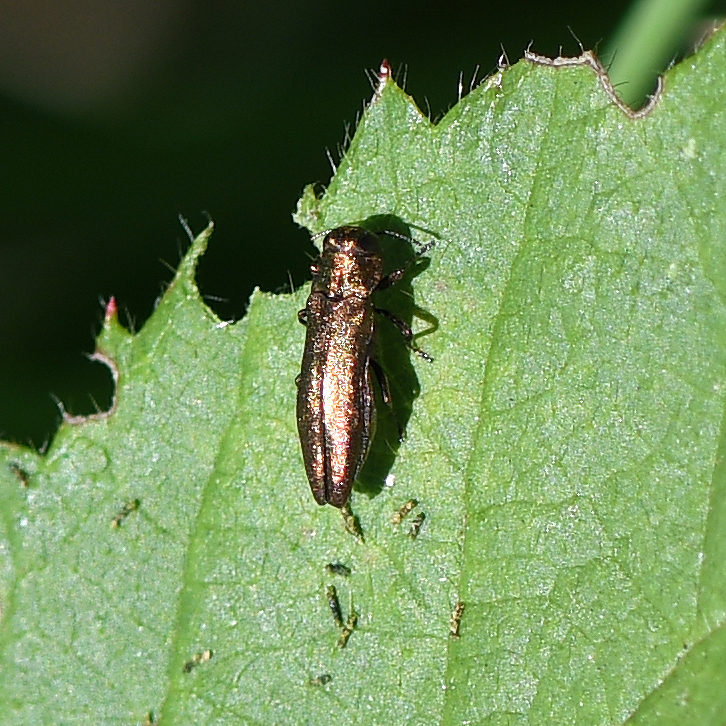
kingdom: Animalia
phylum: Arthropoda
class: Insecta
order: Coleoptera
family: Buprestidae
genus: Agrilus
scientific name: Agrilus cuprescens
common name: Rose stem girdler
